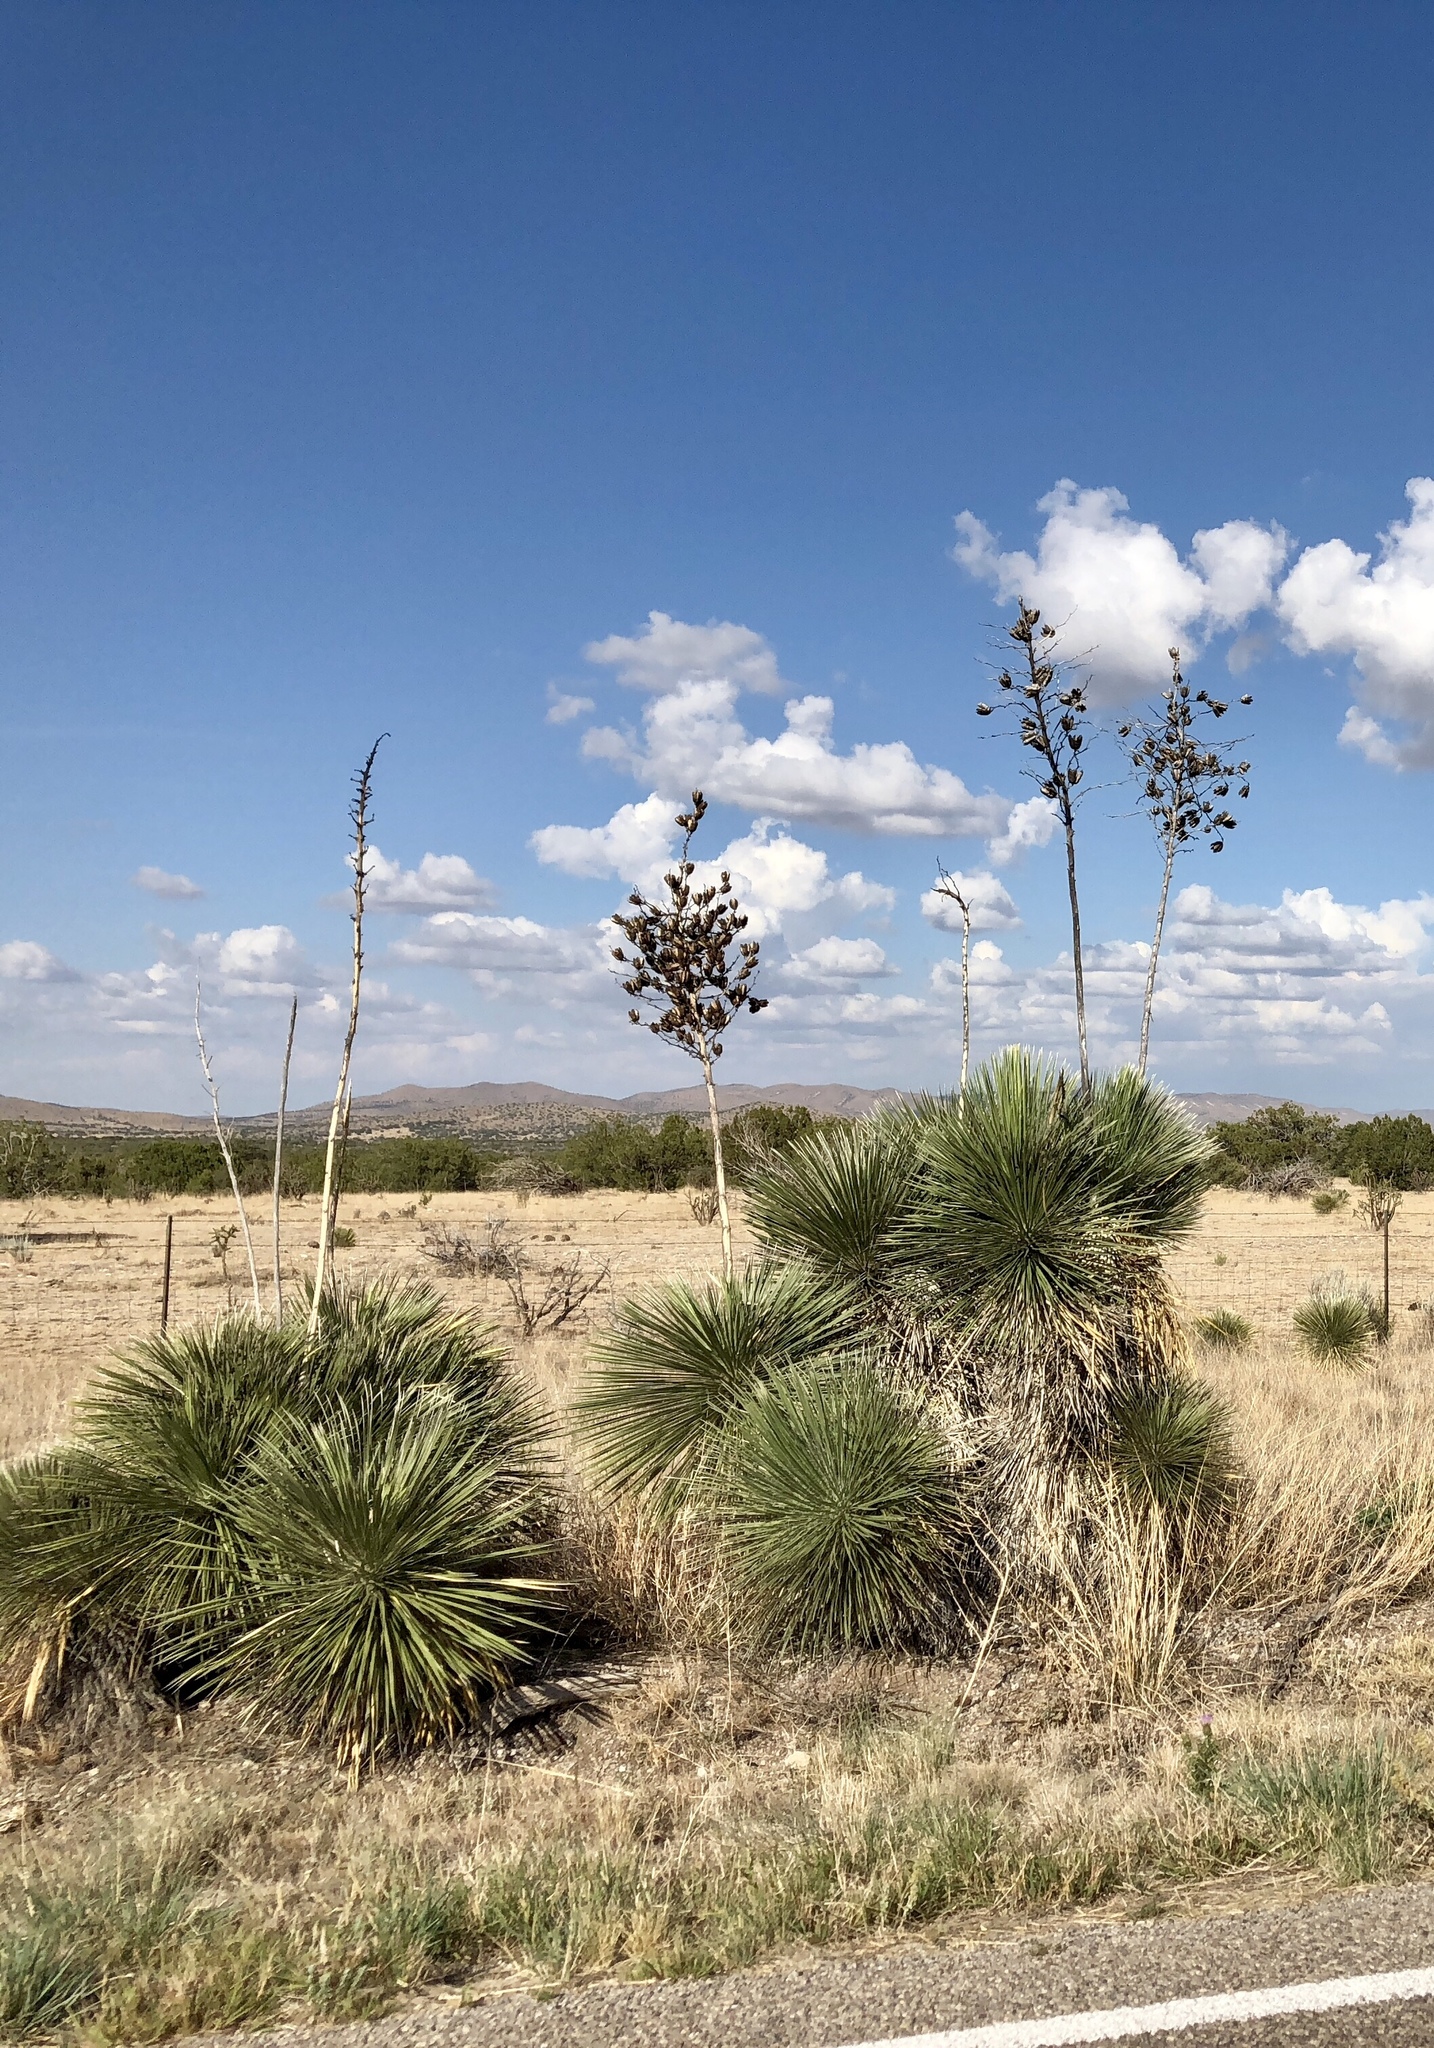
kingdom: Plantae
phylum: Tracheophyta
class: Liliopsida
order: Asparagales
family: Asparagaceae
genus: Yucca
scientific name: Yucca elata
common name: Palmella
